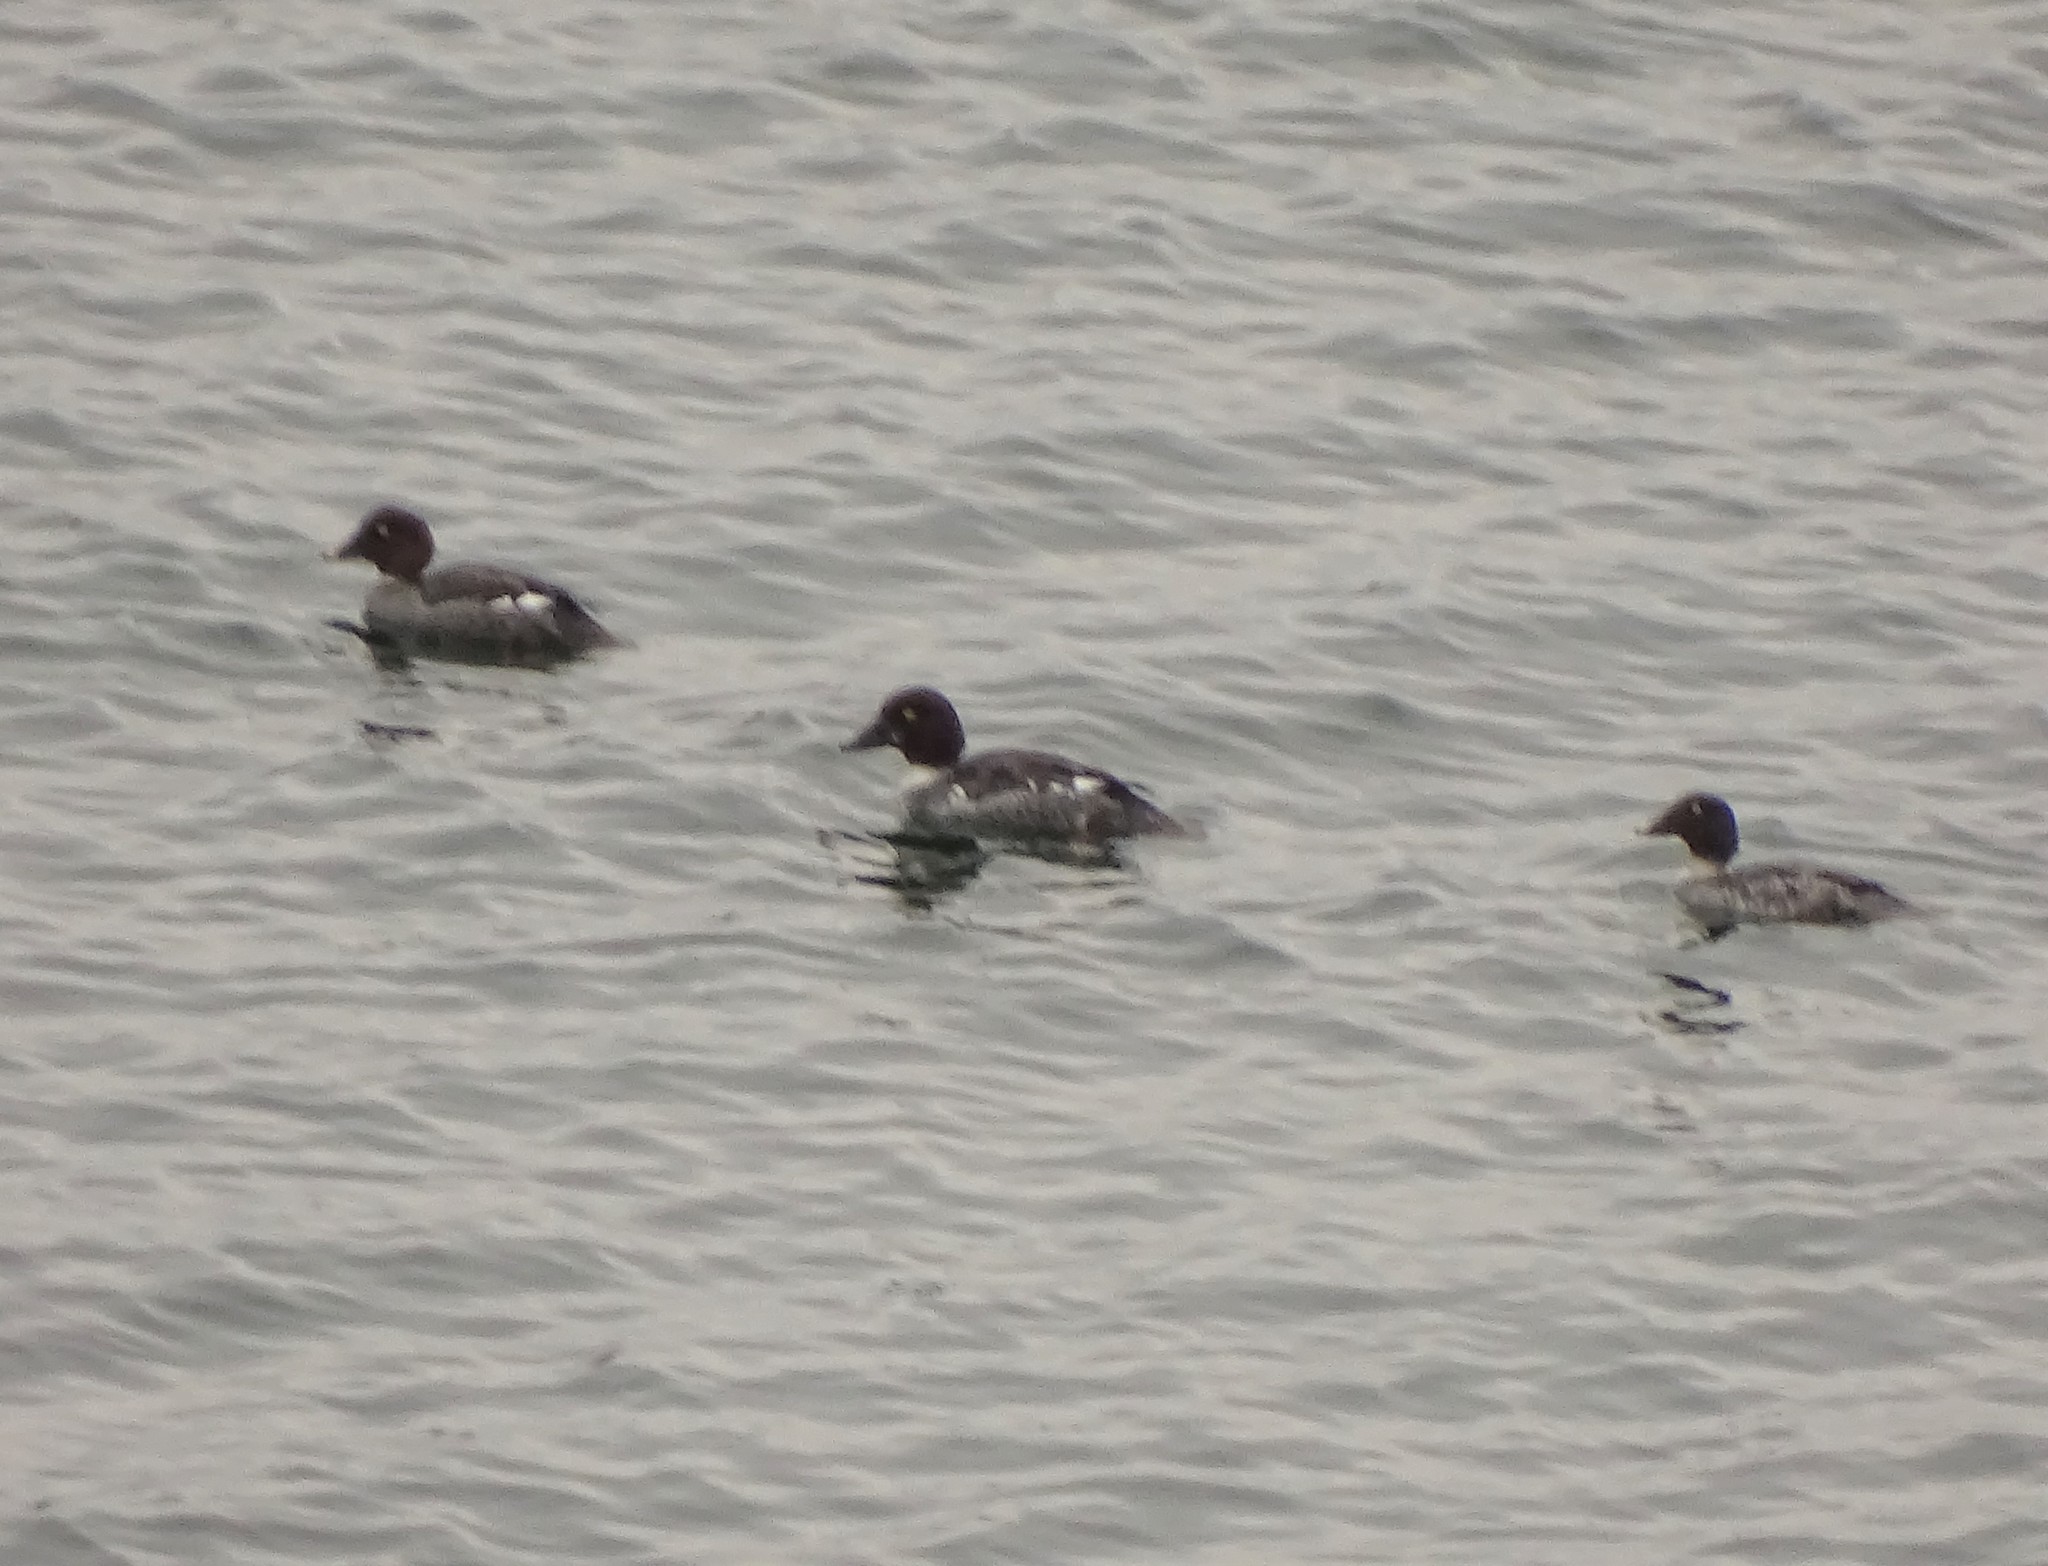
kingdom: Animalia
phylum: Chordata
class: Aves
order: Anseriformes
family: Anatidae
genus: Bucephala
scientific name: Bucephala clangula
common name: Common goldeneye
